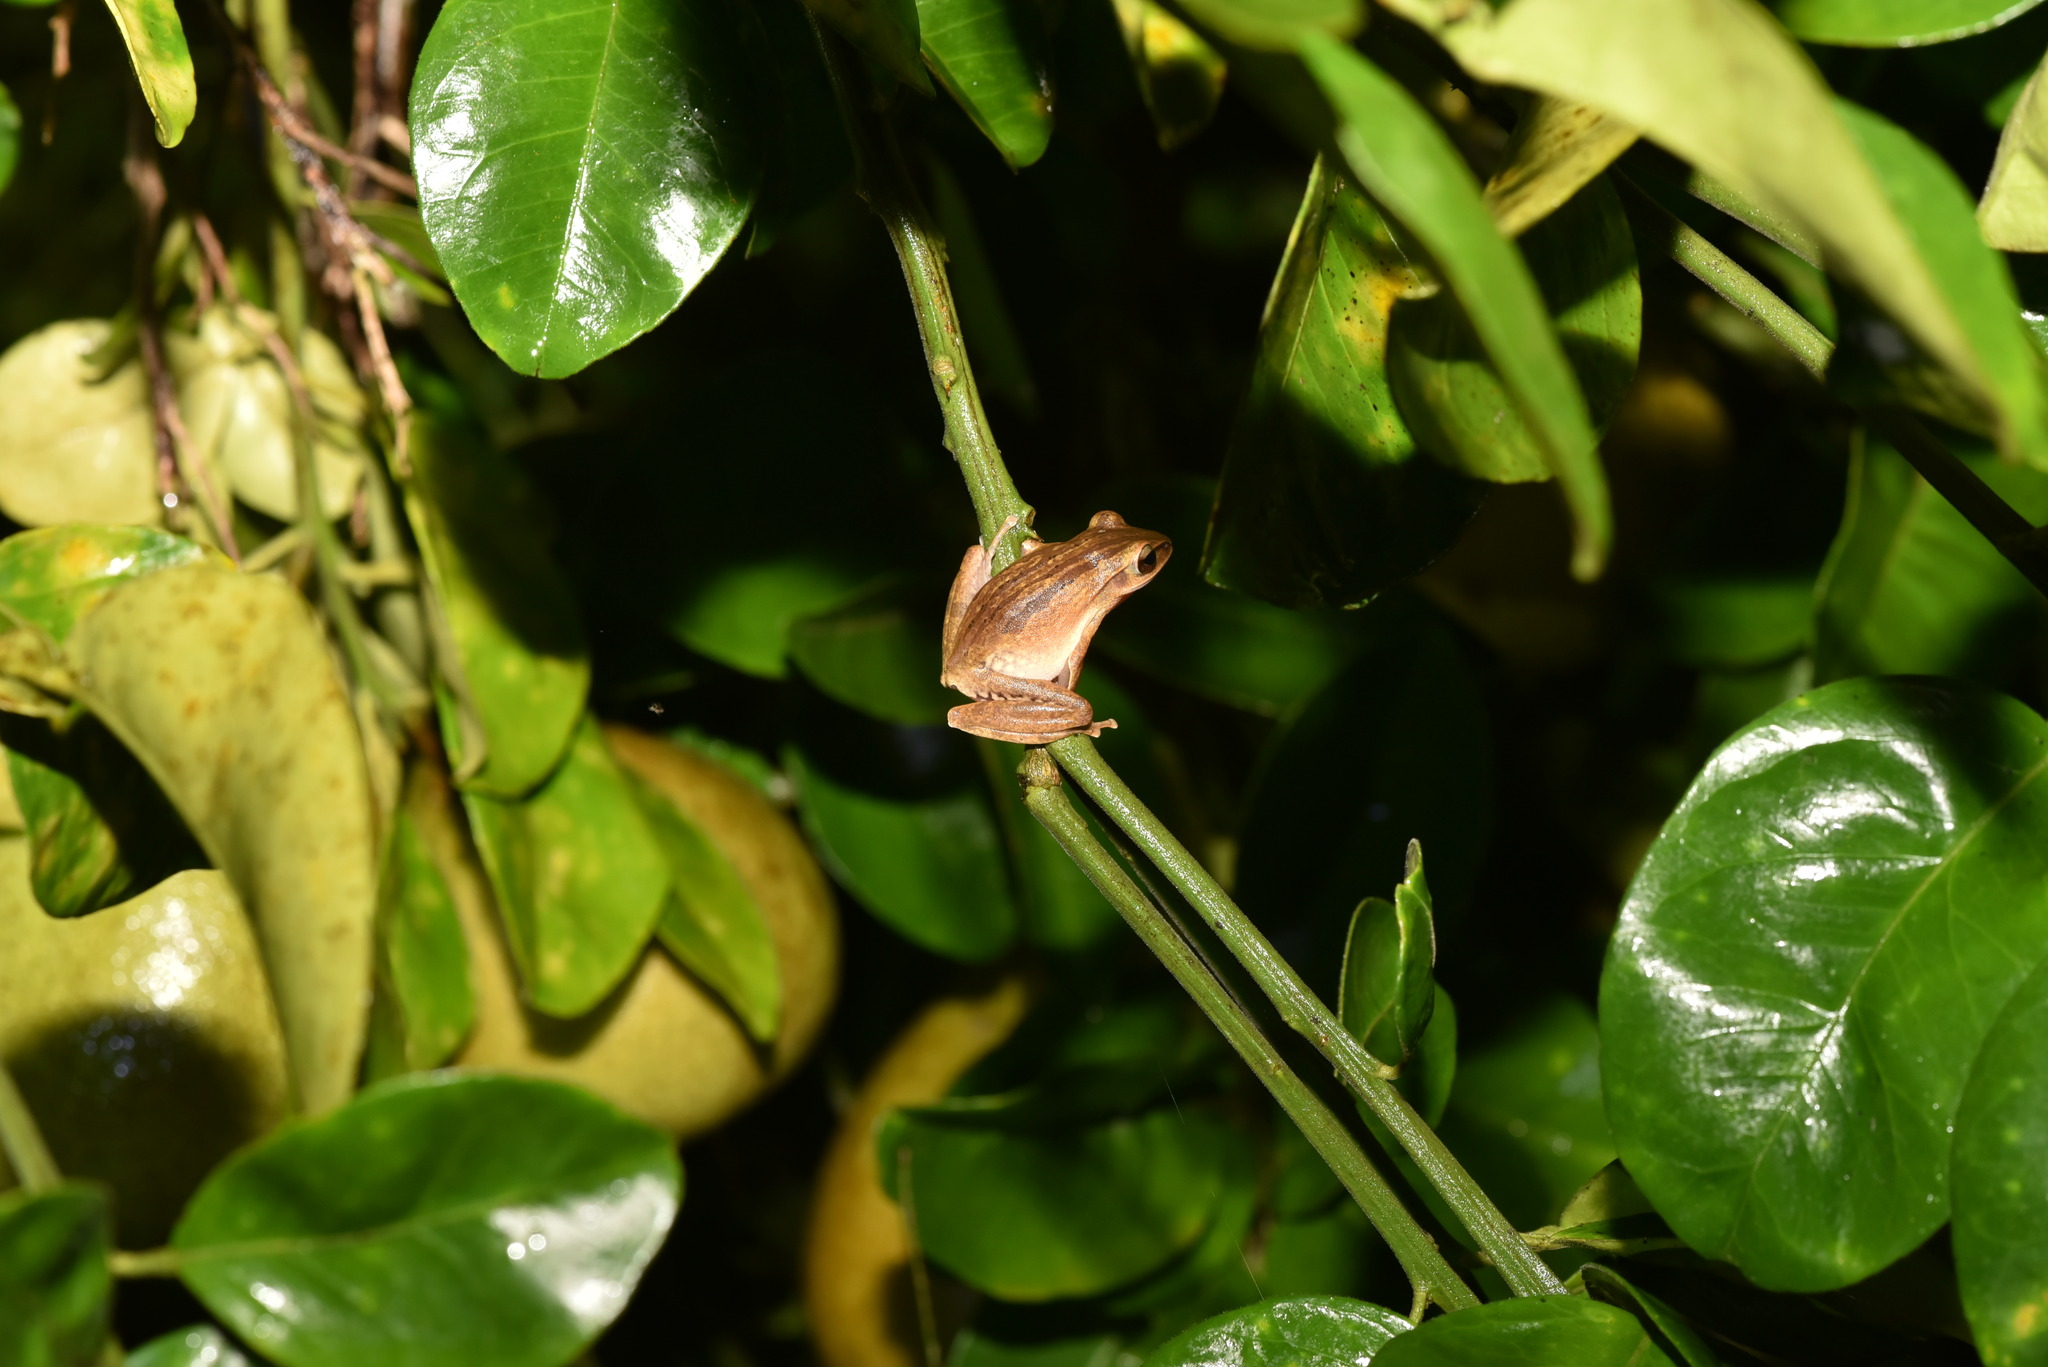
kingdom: Animalia
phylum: Chordata
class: Amphibia
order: Anura
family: Rhacophoridae
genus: Polypedates
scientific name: Polypedates braueri
